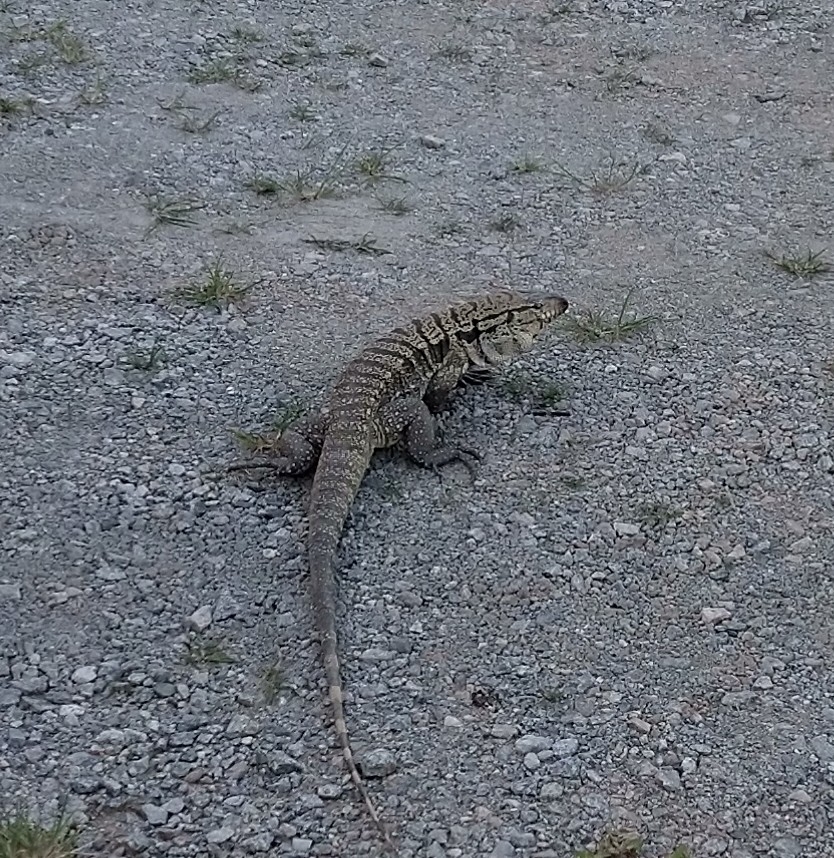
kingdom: Animalia
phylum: Chordata
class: Squamata
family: Teiidae
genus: Salvator
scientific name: Salvator merianae
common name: Argentine black and white tegu
